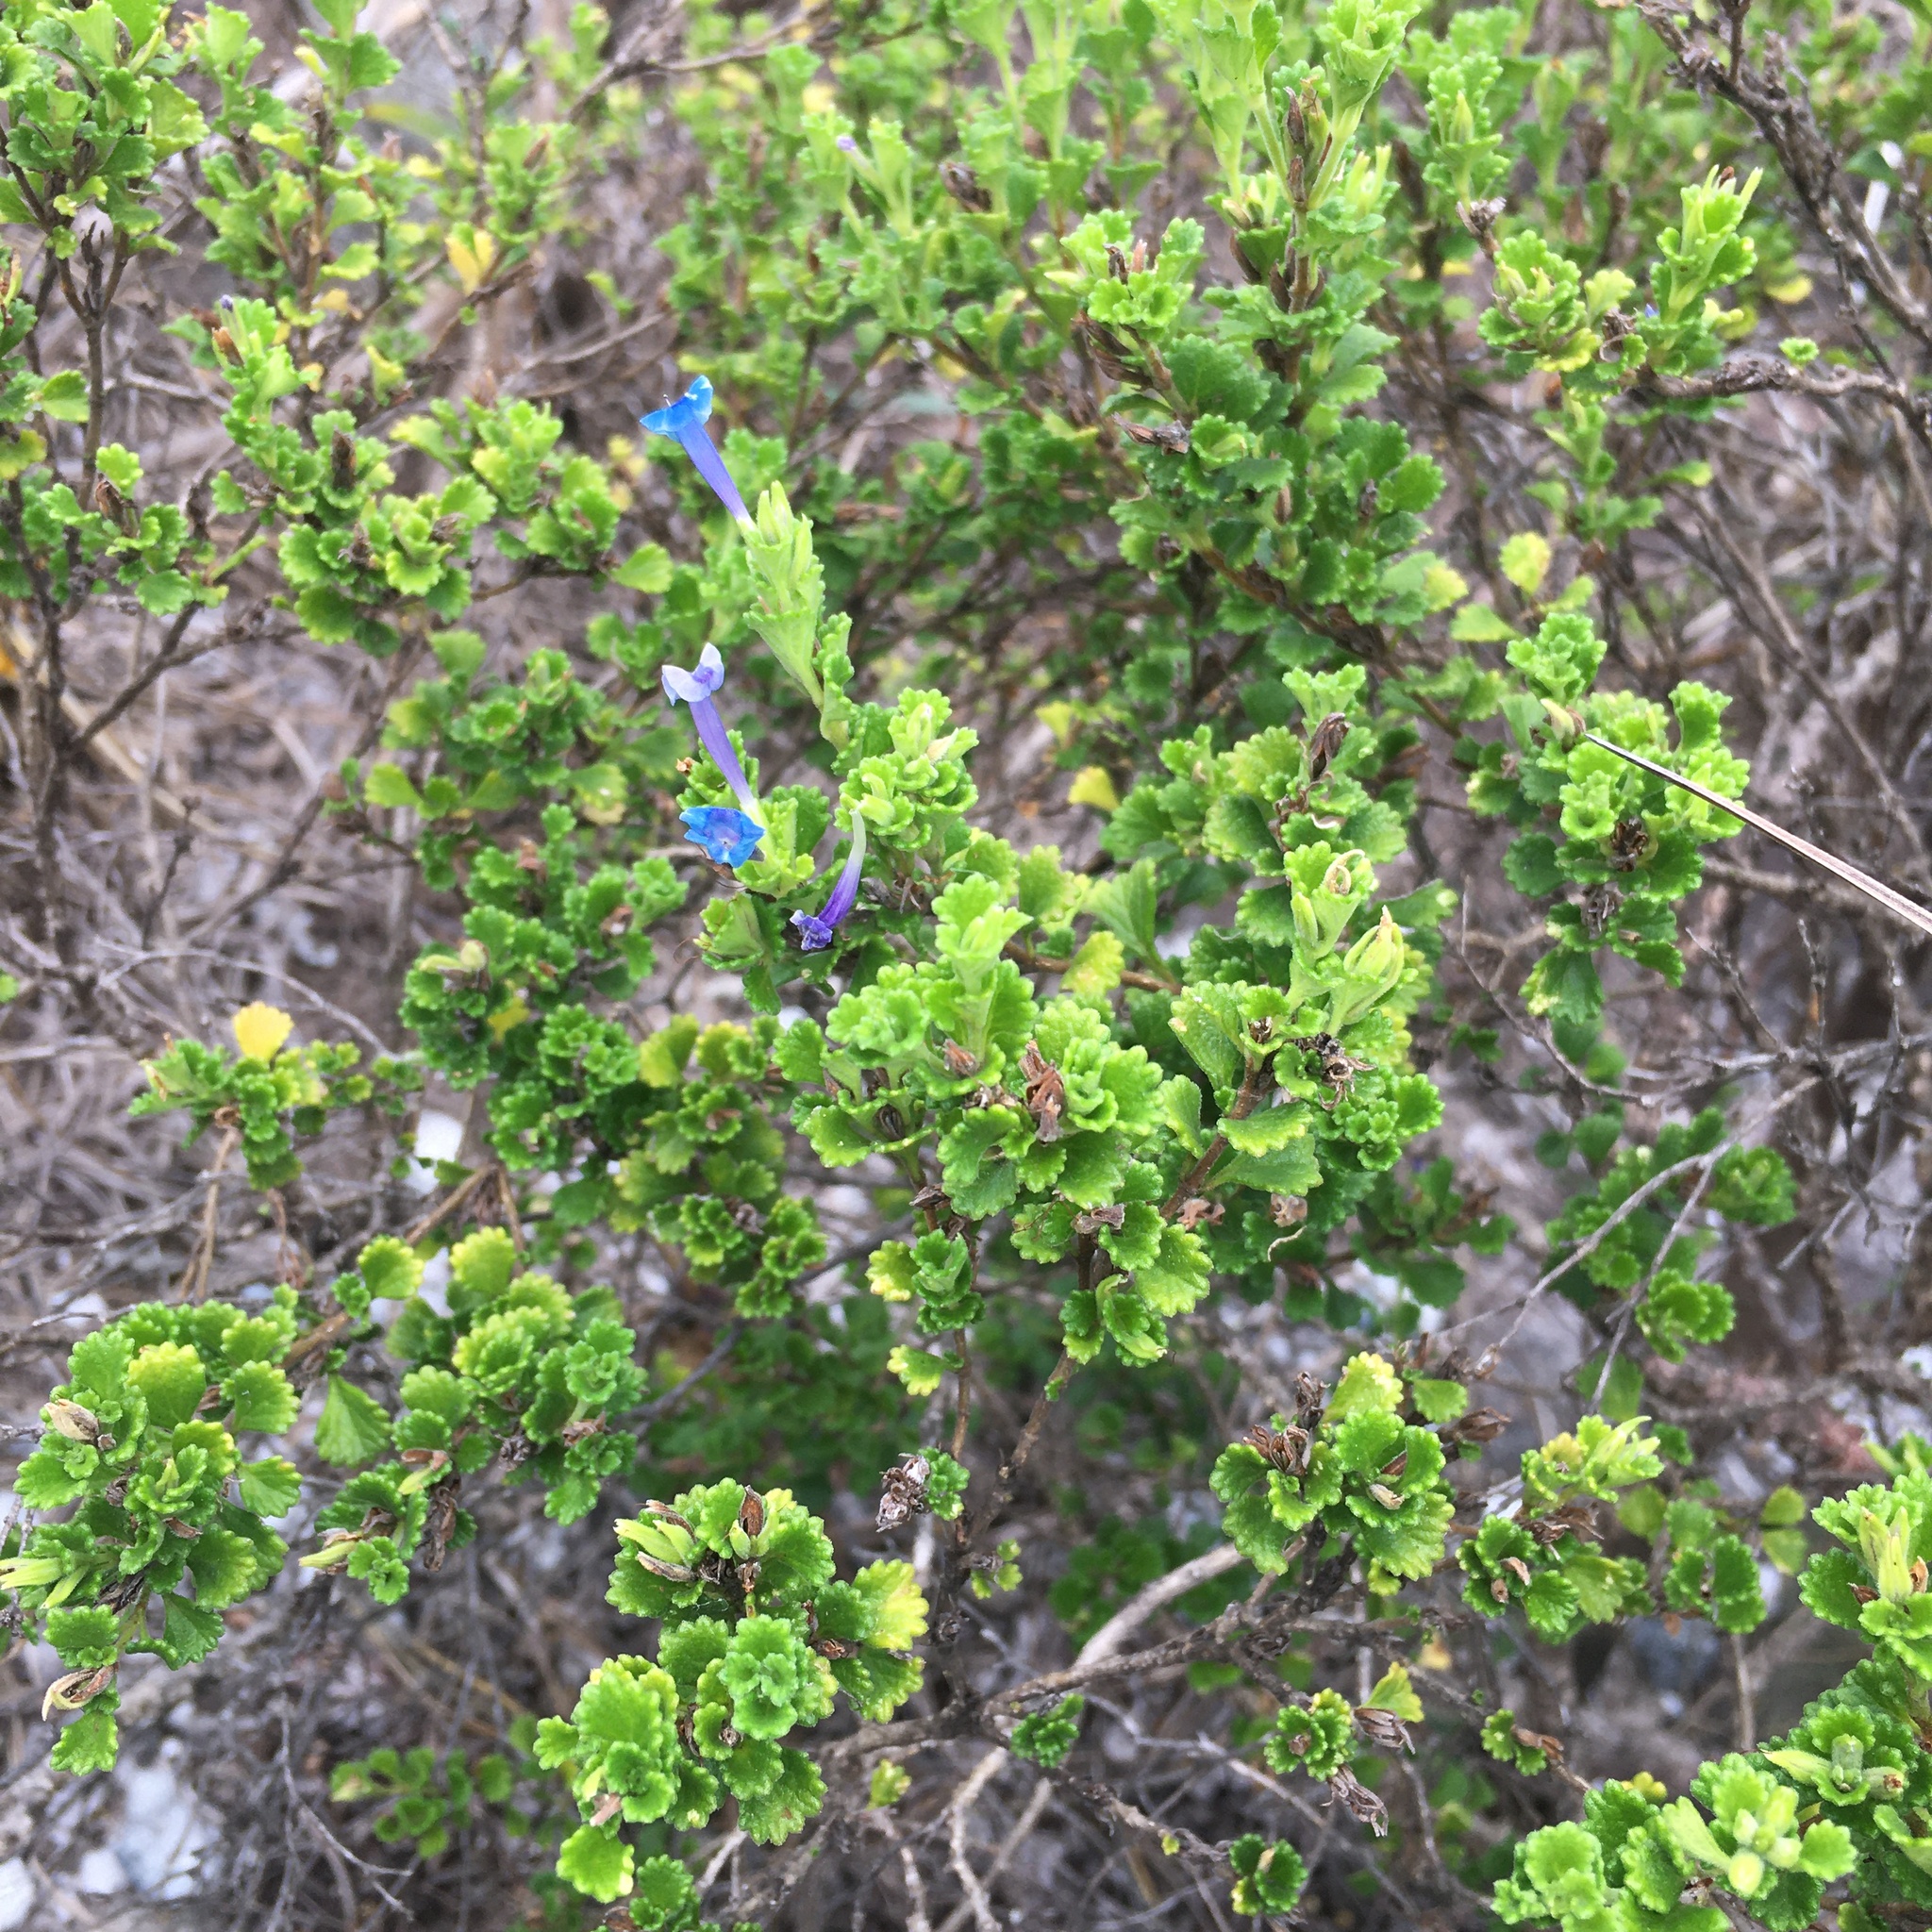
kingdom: Plantae
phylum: Tracheophyta
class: Magnoliopsida
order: Lamiales
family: Verbenaceae
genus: Stachytarpheta
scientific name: Stachytarpheta chascanoides
